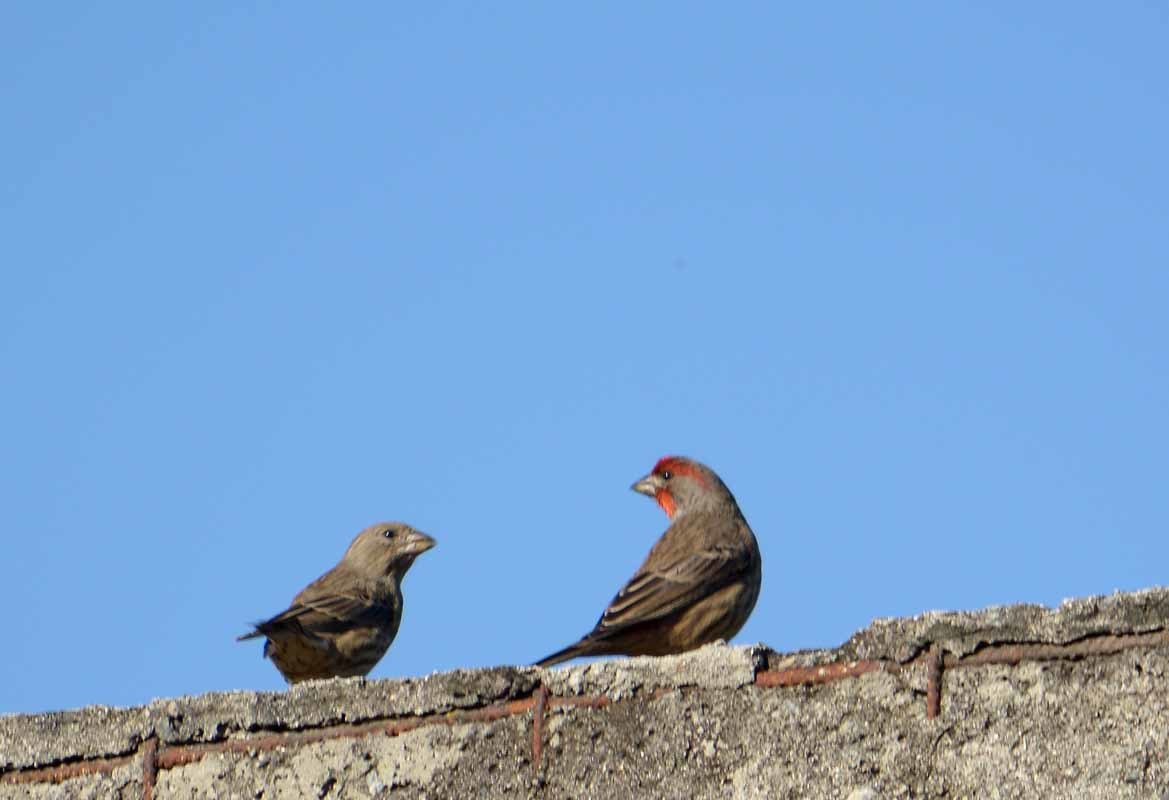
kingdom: Animalia
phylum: Chordata
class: Aves
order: Passeriformes
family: Fringillidae
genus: Haemorhous
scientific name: Haemorhous mexicanus
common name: House finch
